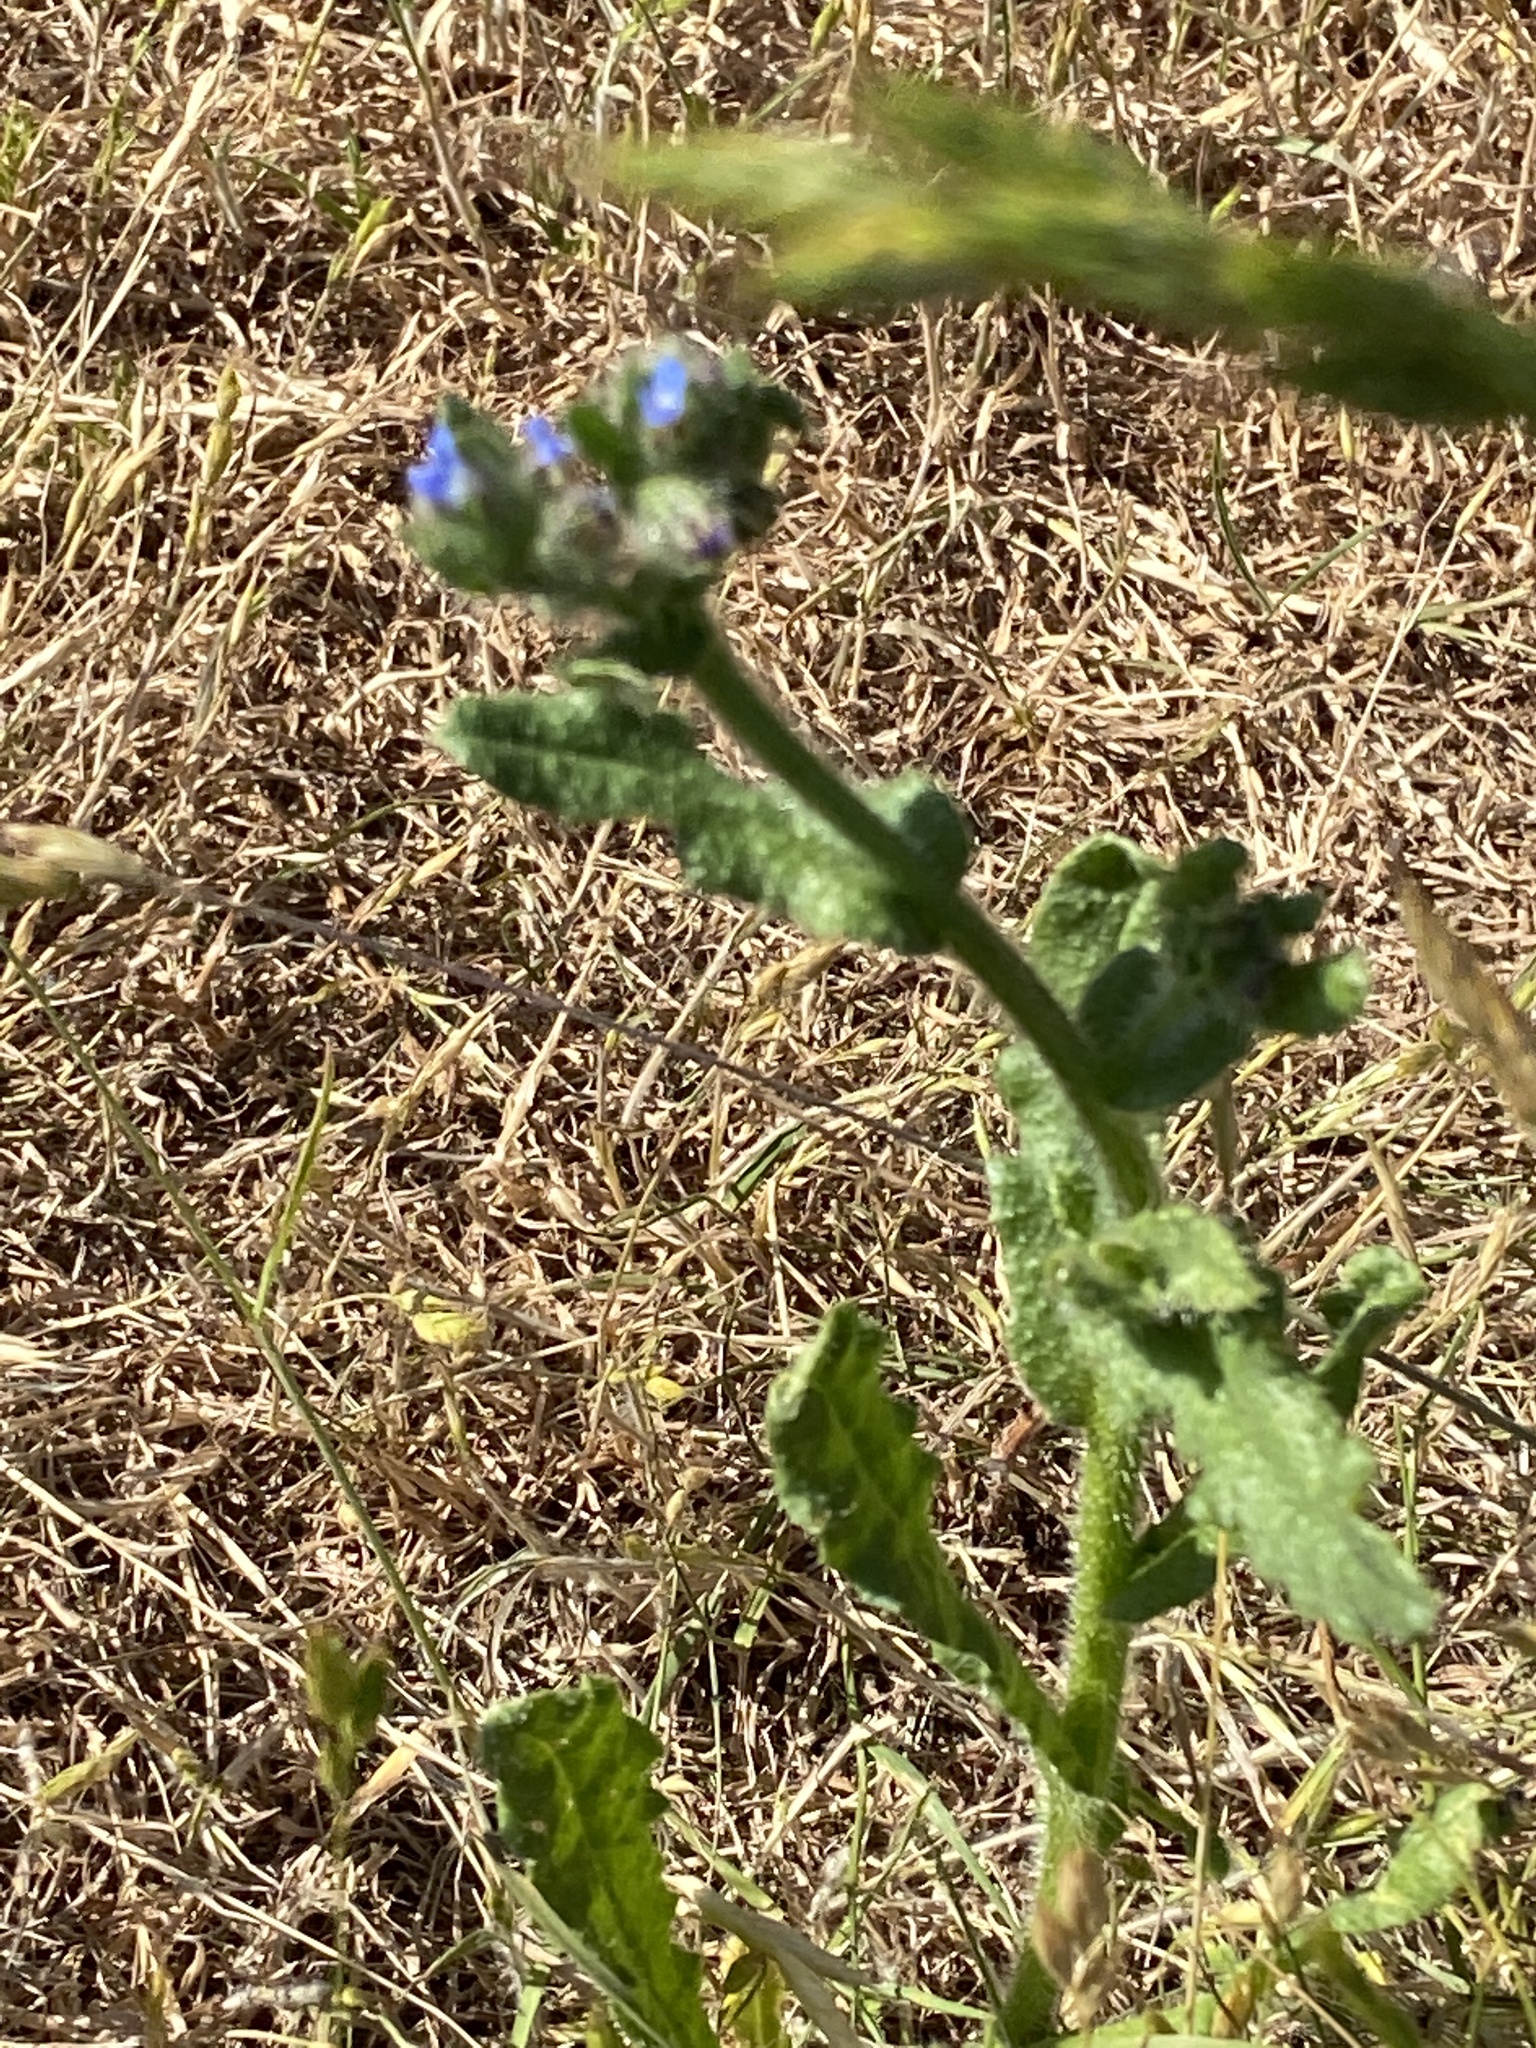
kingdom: Plantae
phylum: Tracheophyta
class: Magnoliopsida
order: Boraginales
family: Boraginaceae
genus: Lycopsis
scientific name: Lycopsis arvensis
